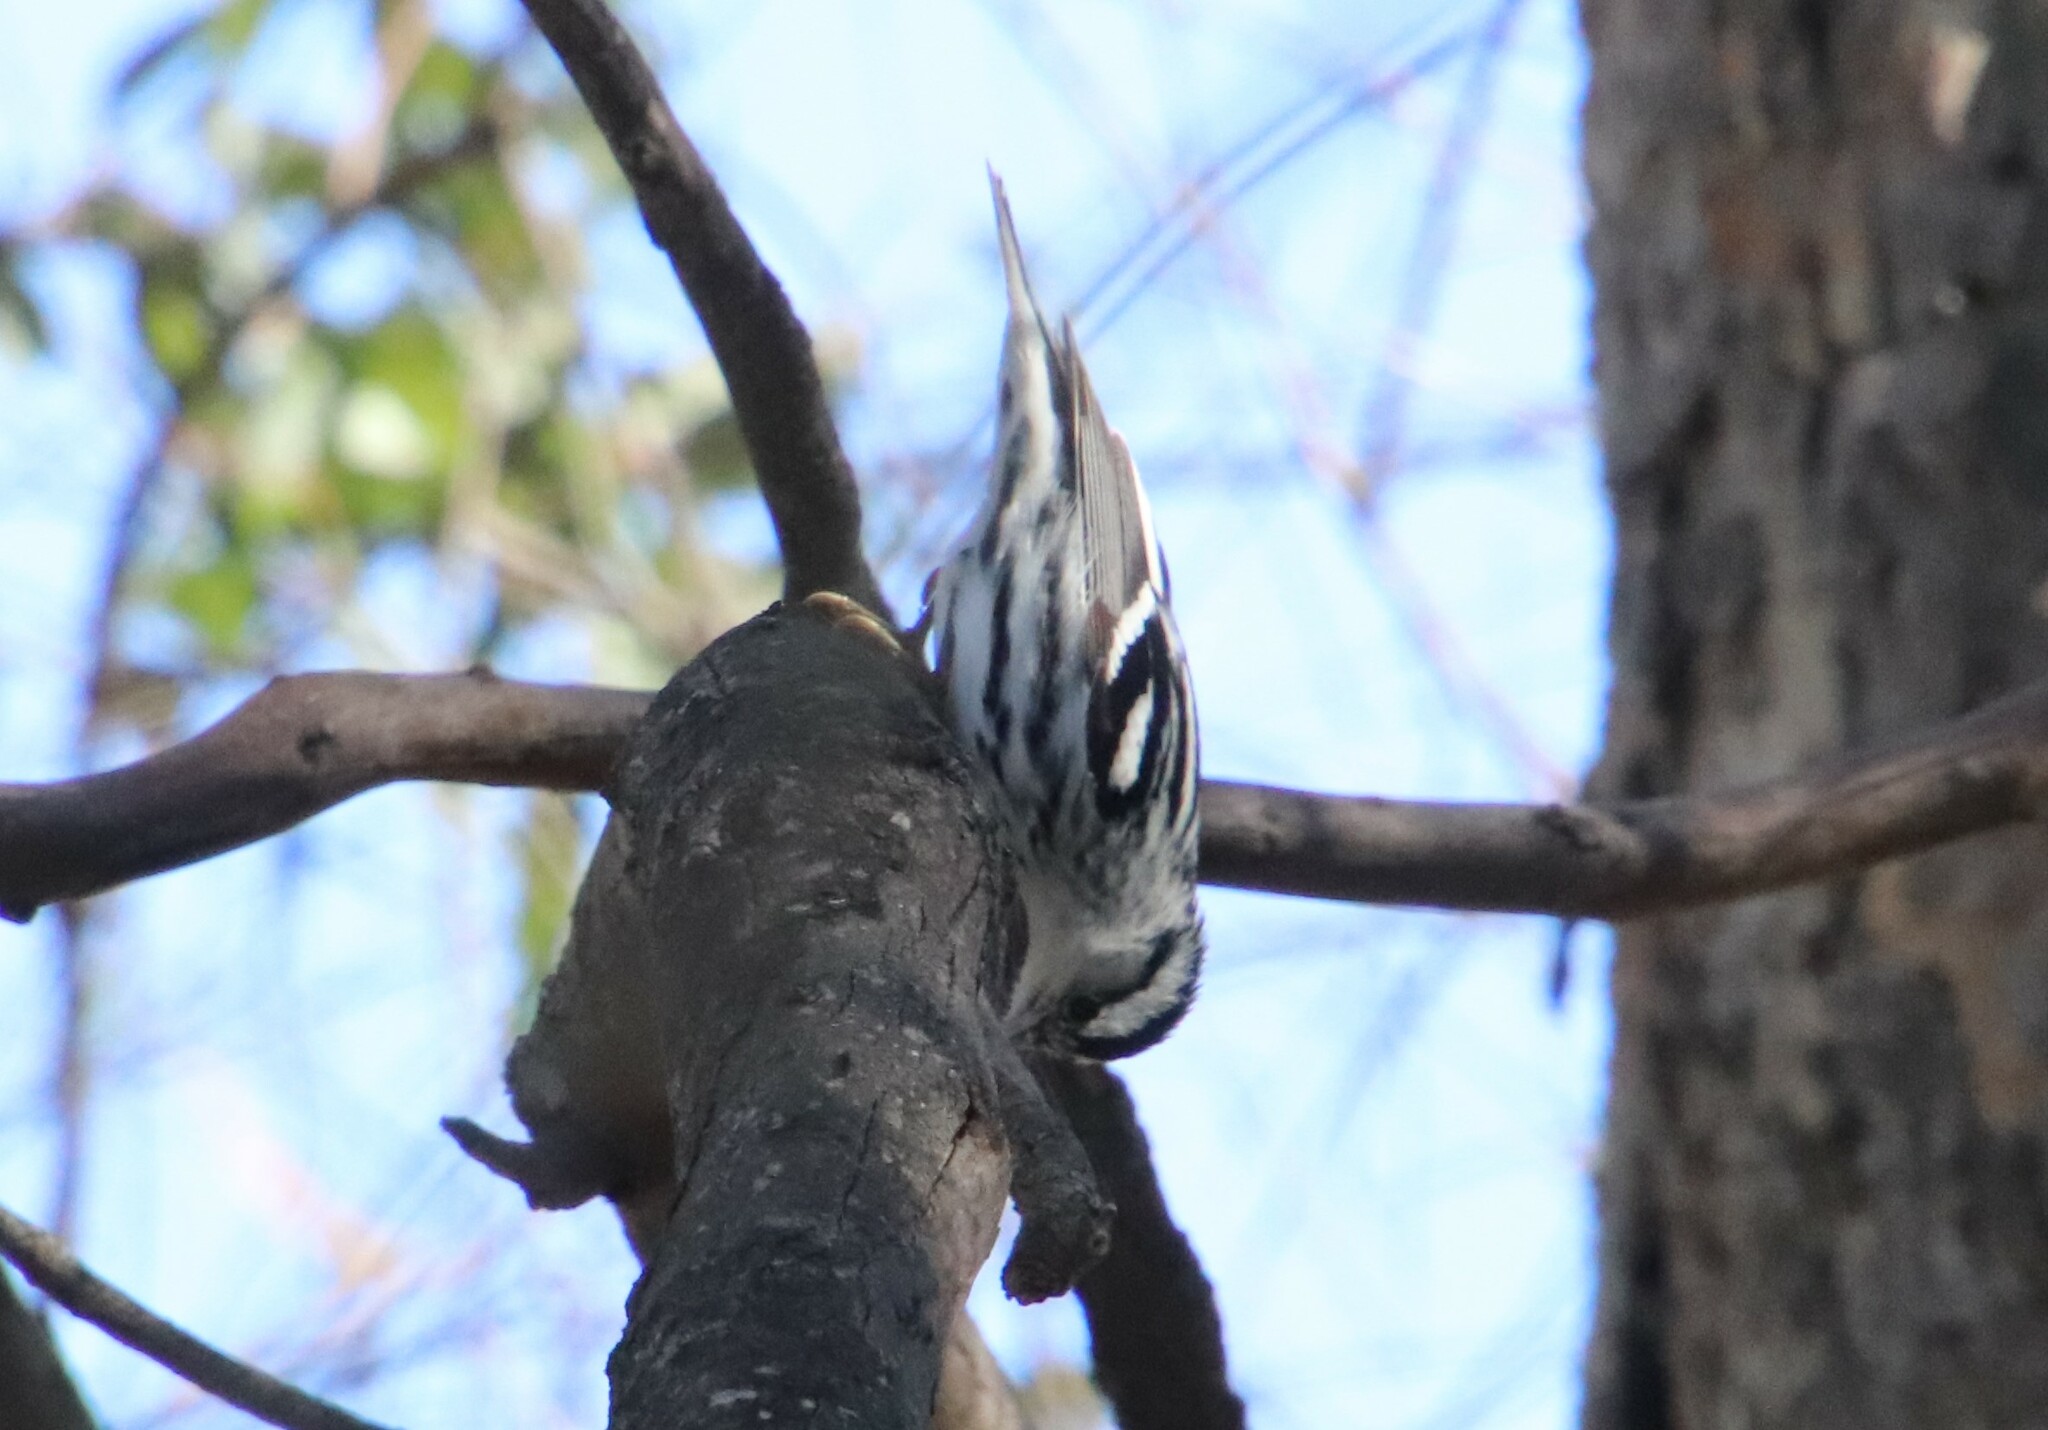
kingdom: Animalia
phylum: Chordata
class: Aves
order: Passeriformes
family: Parulidae
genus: Mniotilta
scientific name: Mniotilta varia
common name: Black-and-white warbler
